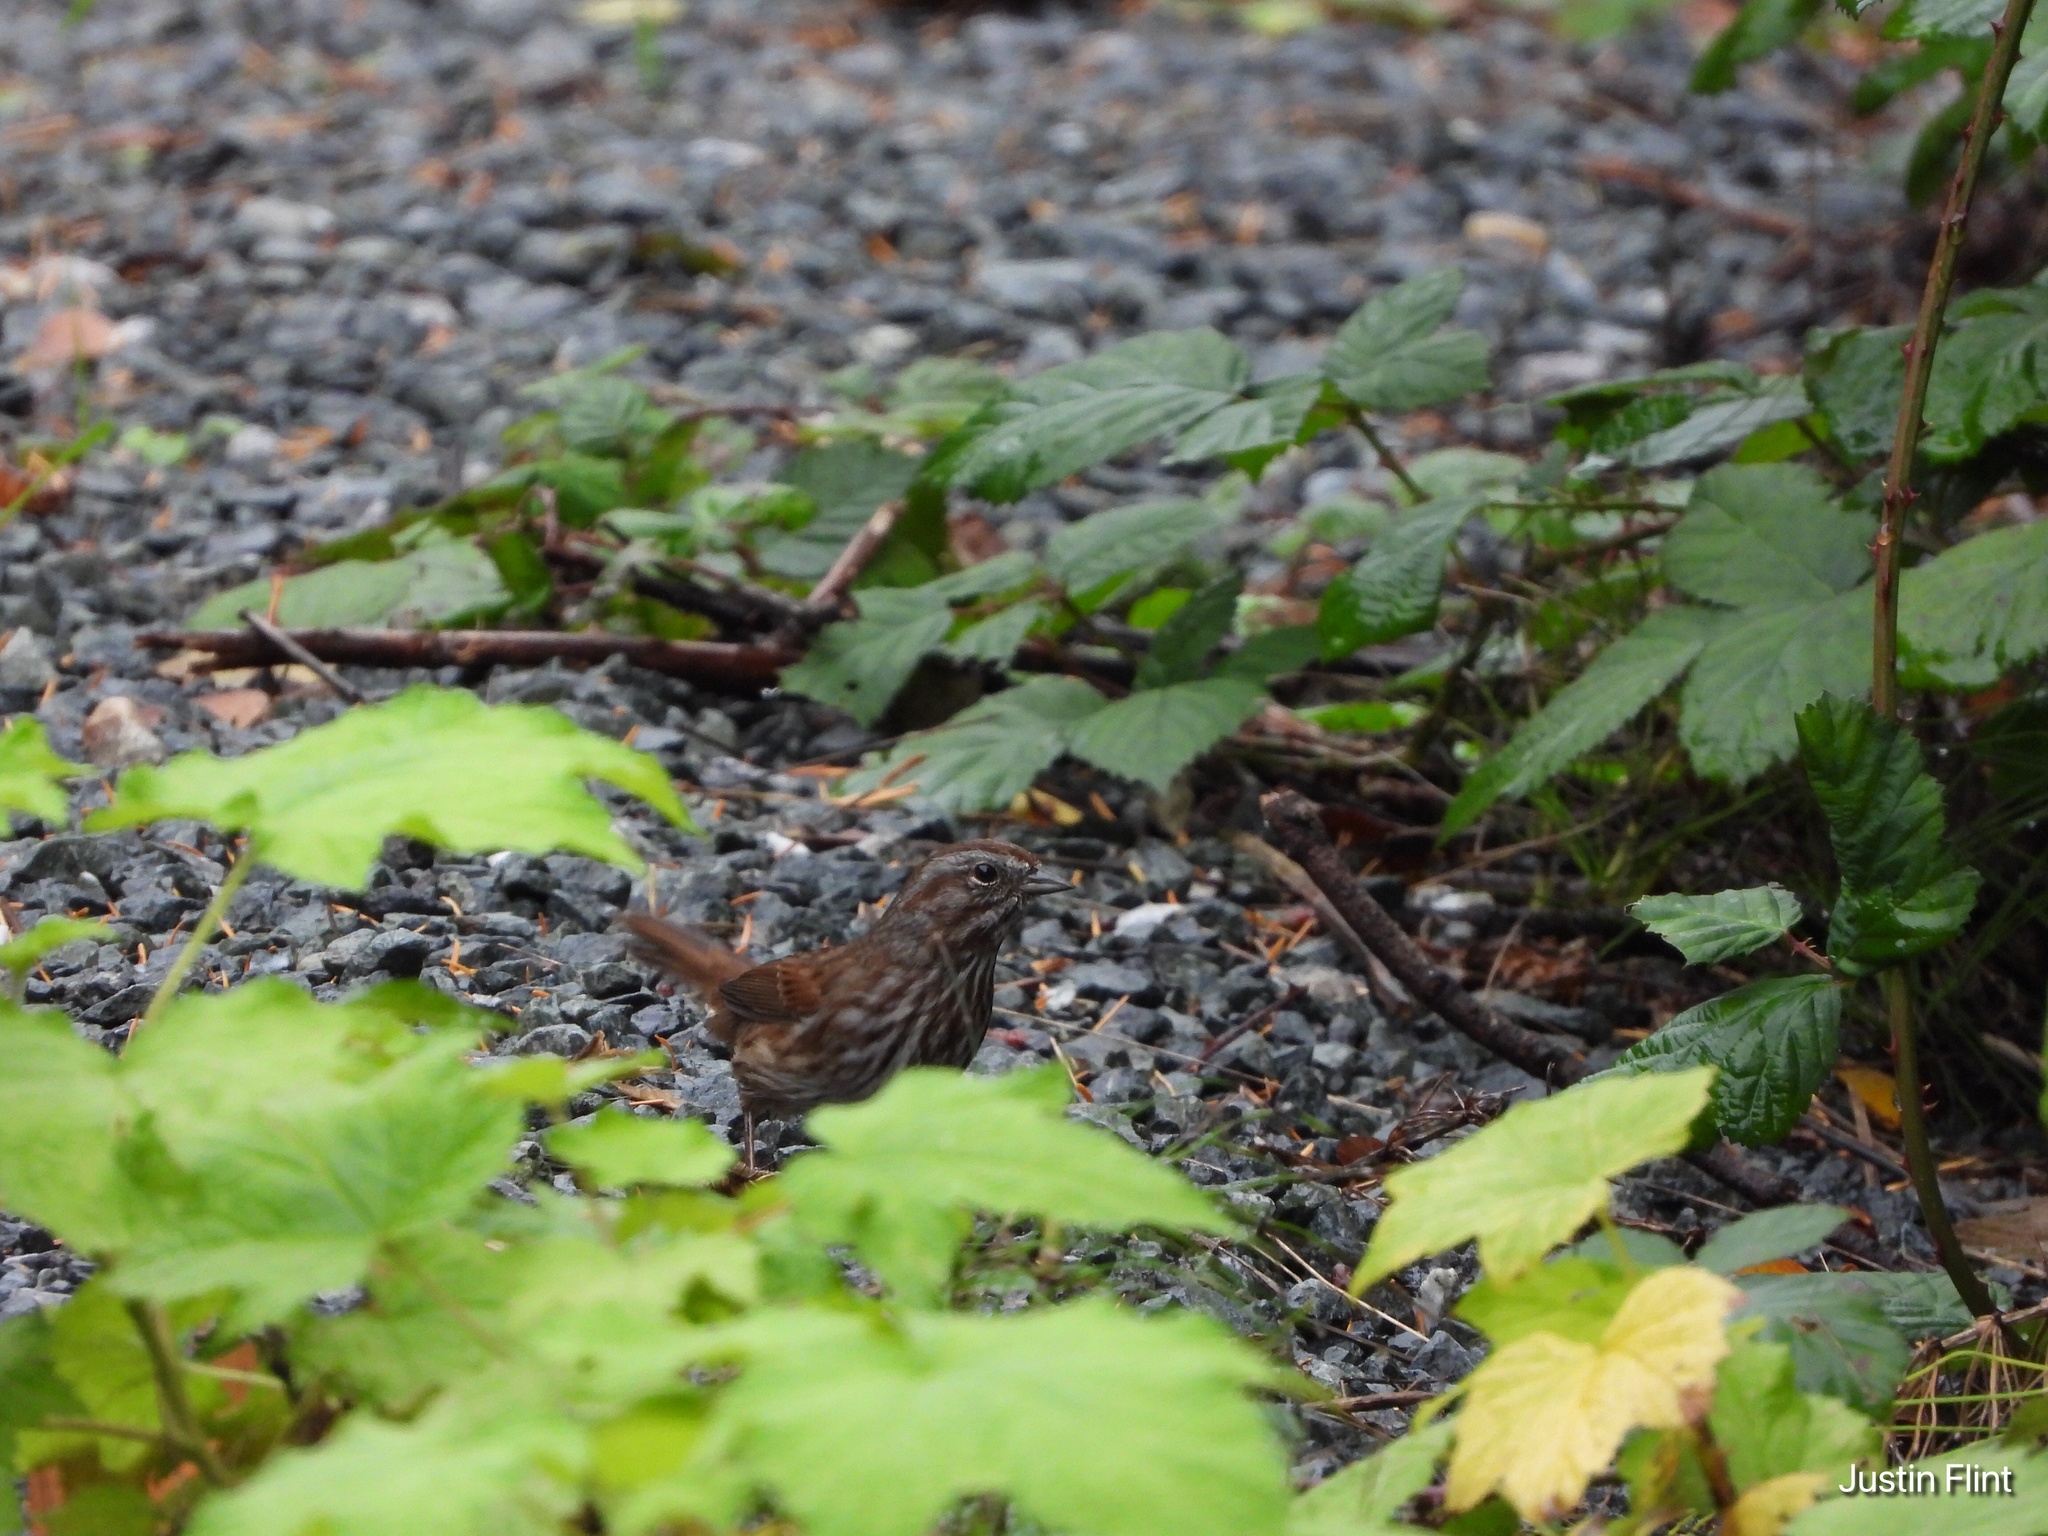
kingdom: Animalia
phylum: Chordata
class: Aves
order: Passeriformes
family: Passerellidae
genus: Melospiza
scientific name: Melospiza melodia
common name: Song sparrow
